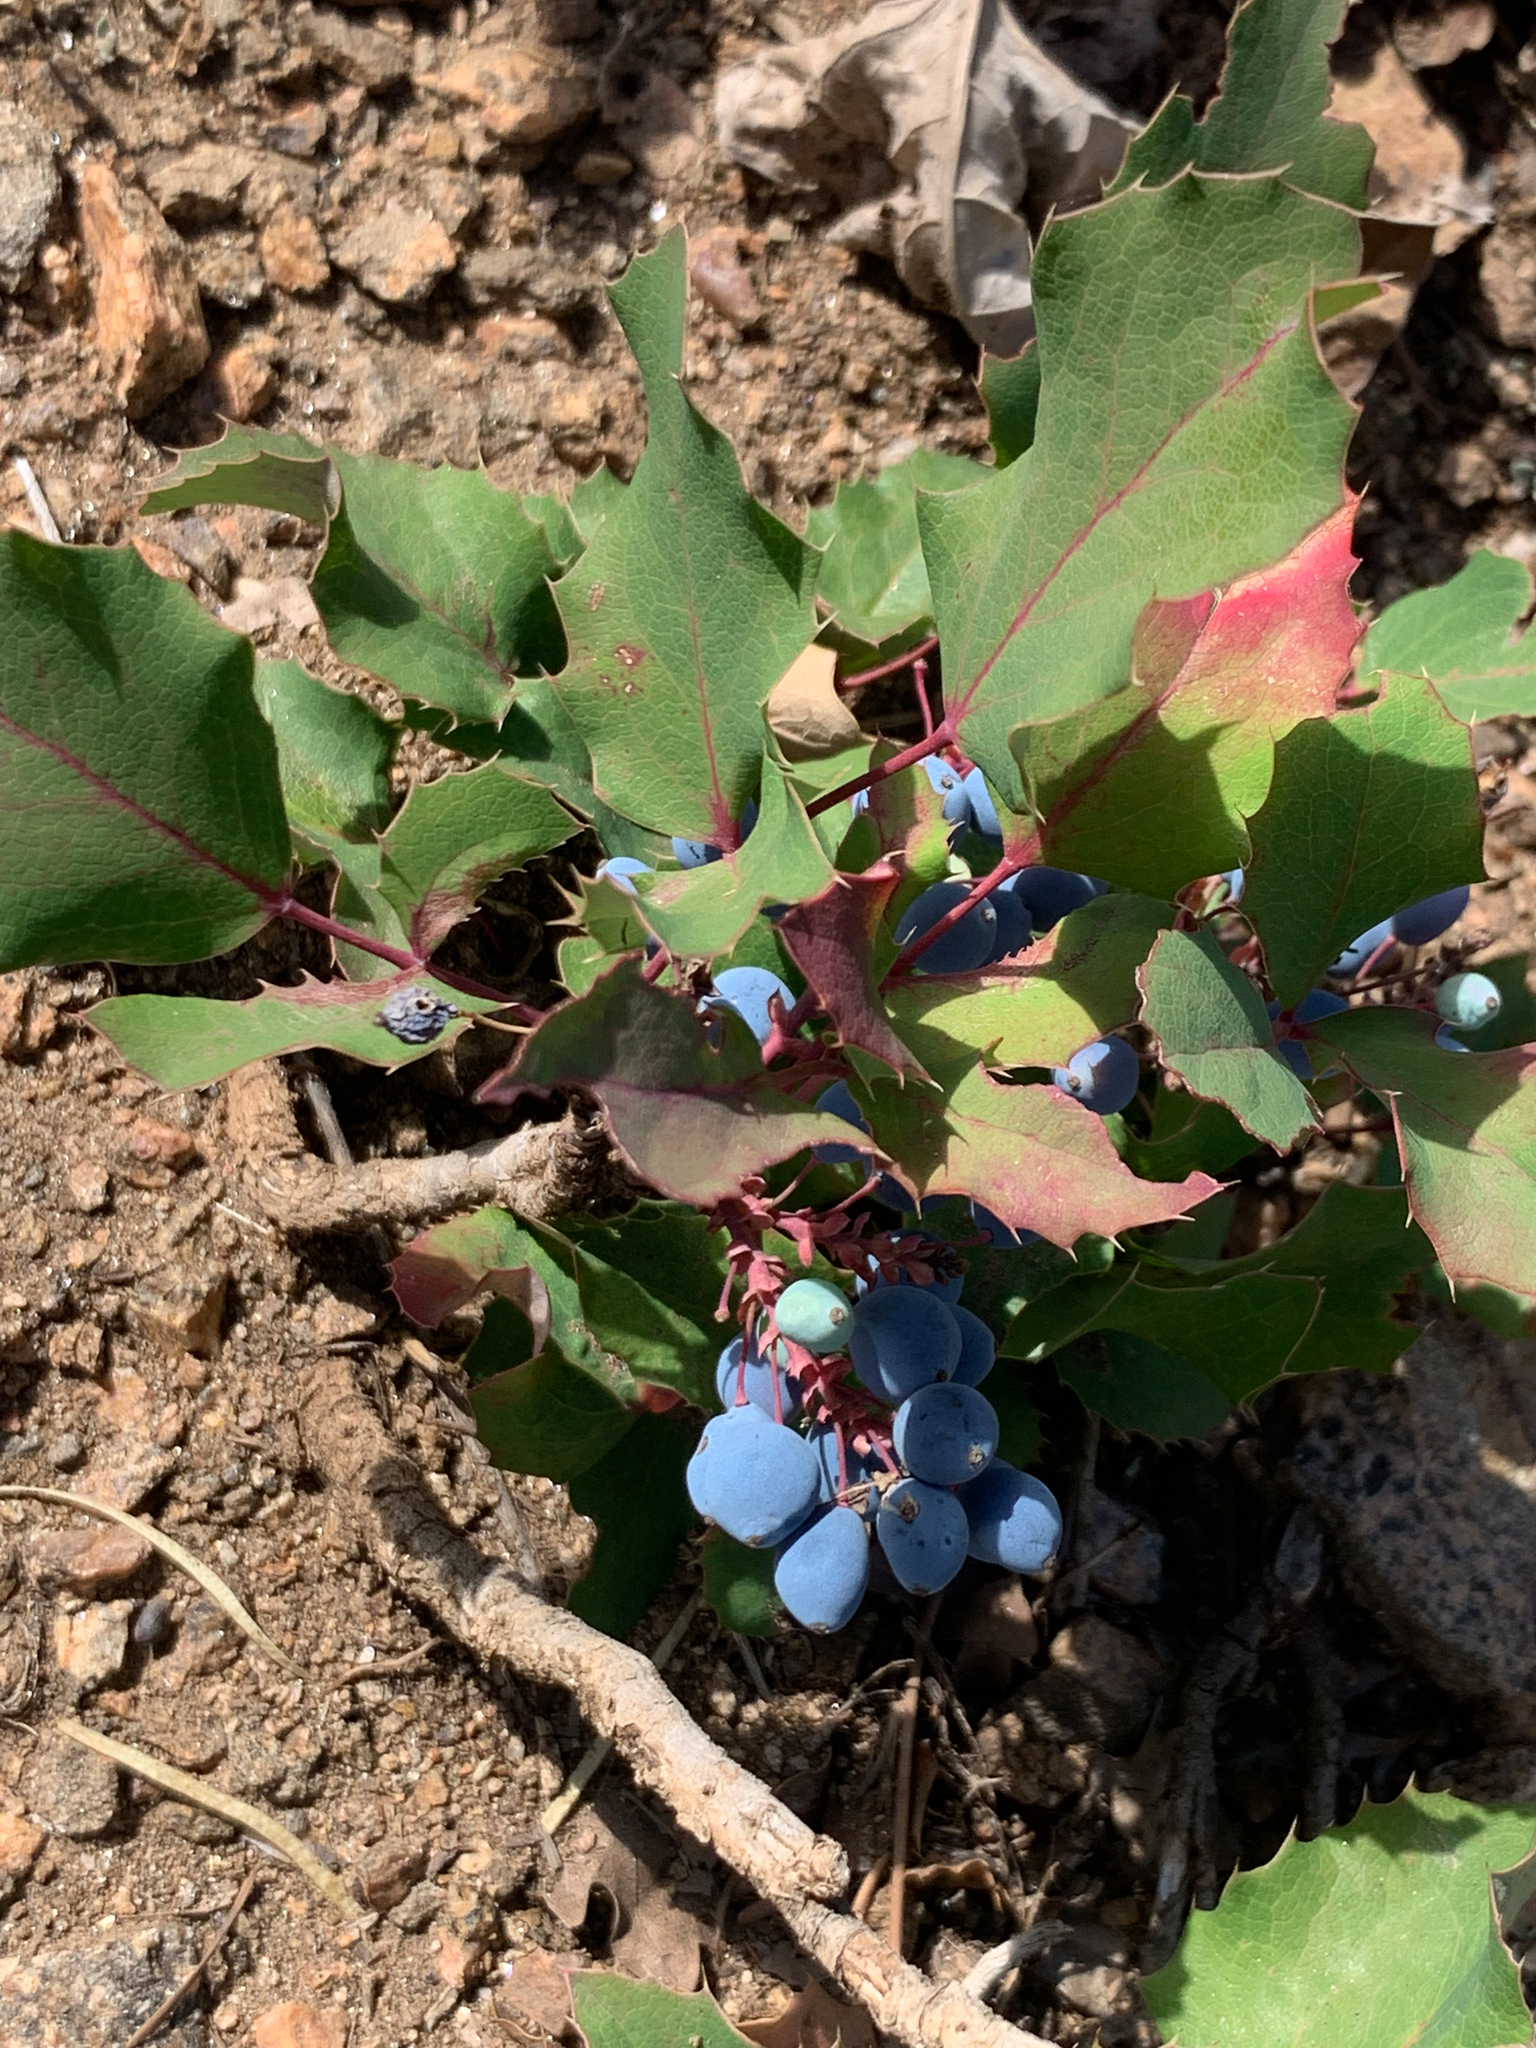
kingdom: Plantae
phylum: Tracheophyta
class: Magnoliopsida
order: Ranunculales
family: Berberidaceae
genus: Mahonia
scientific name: Mahonia repens
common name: Creeping oregon-grape
